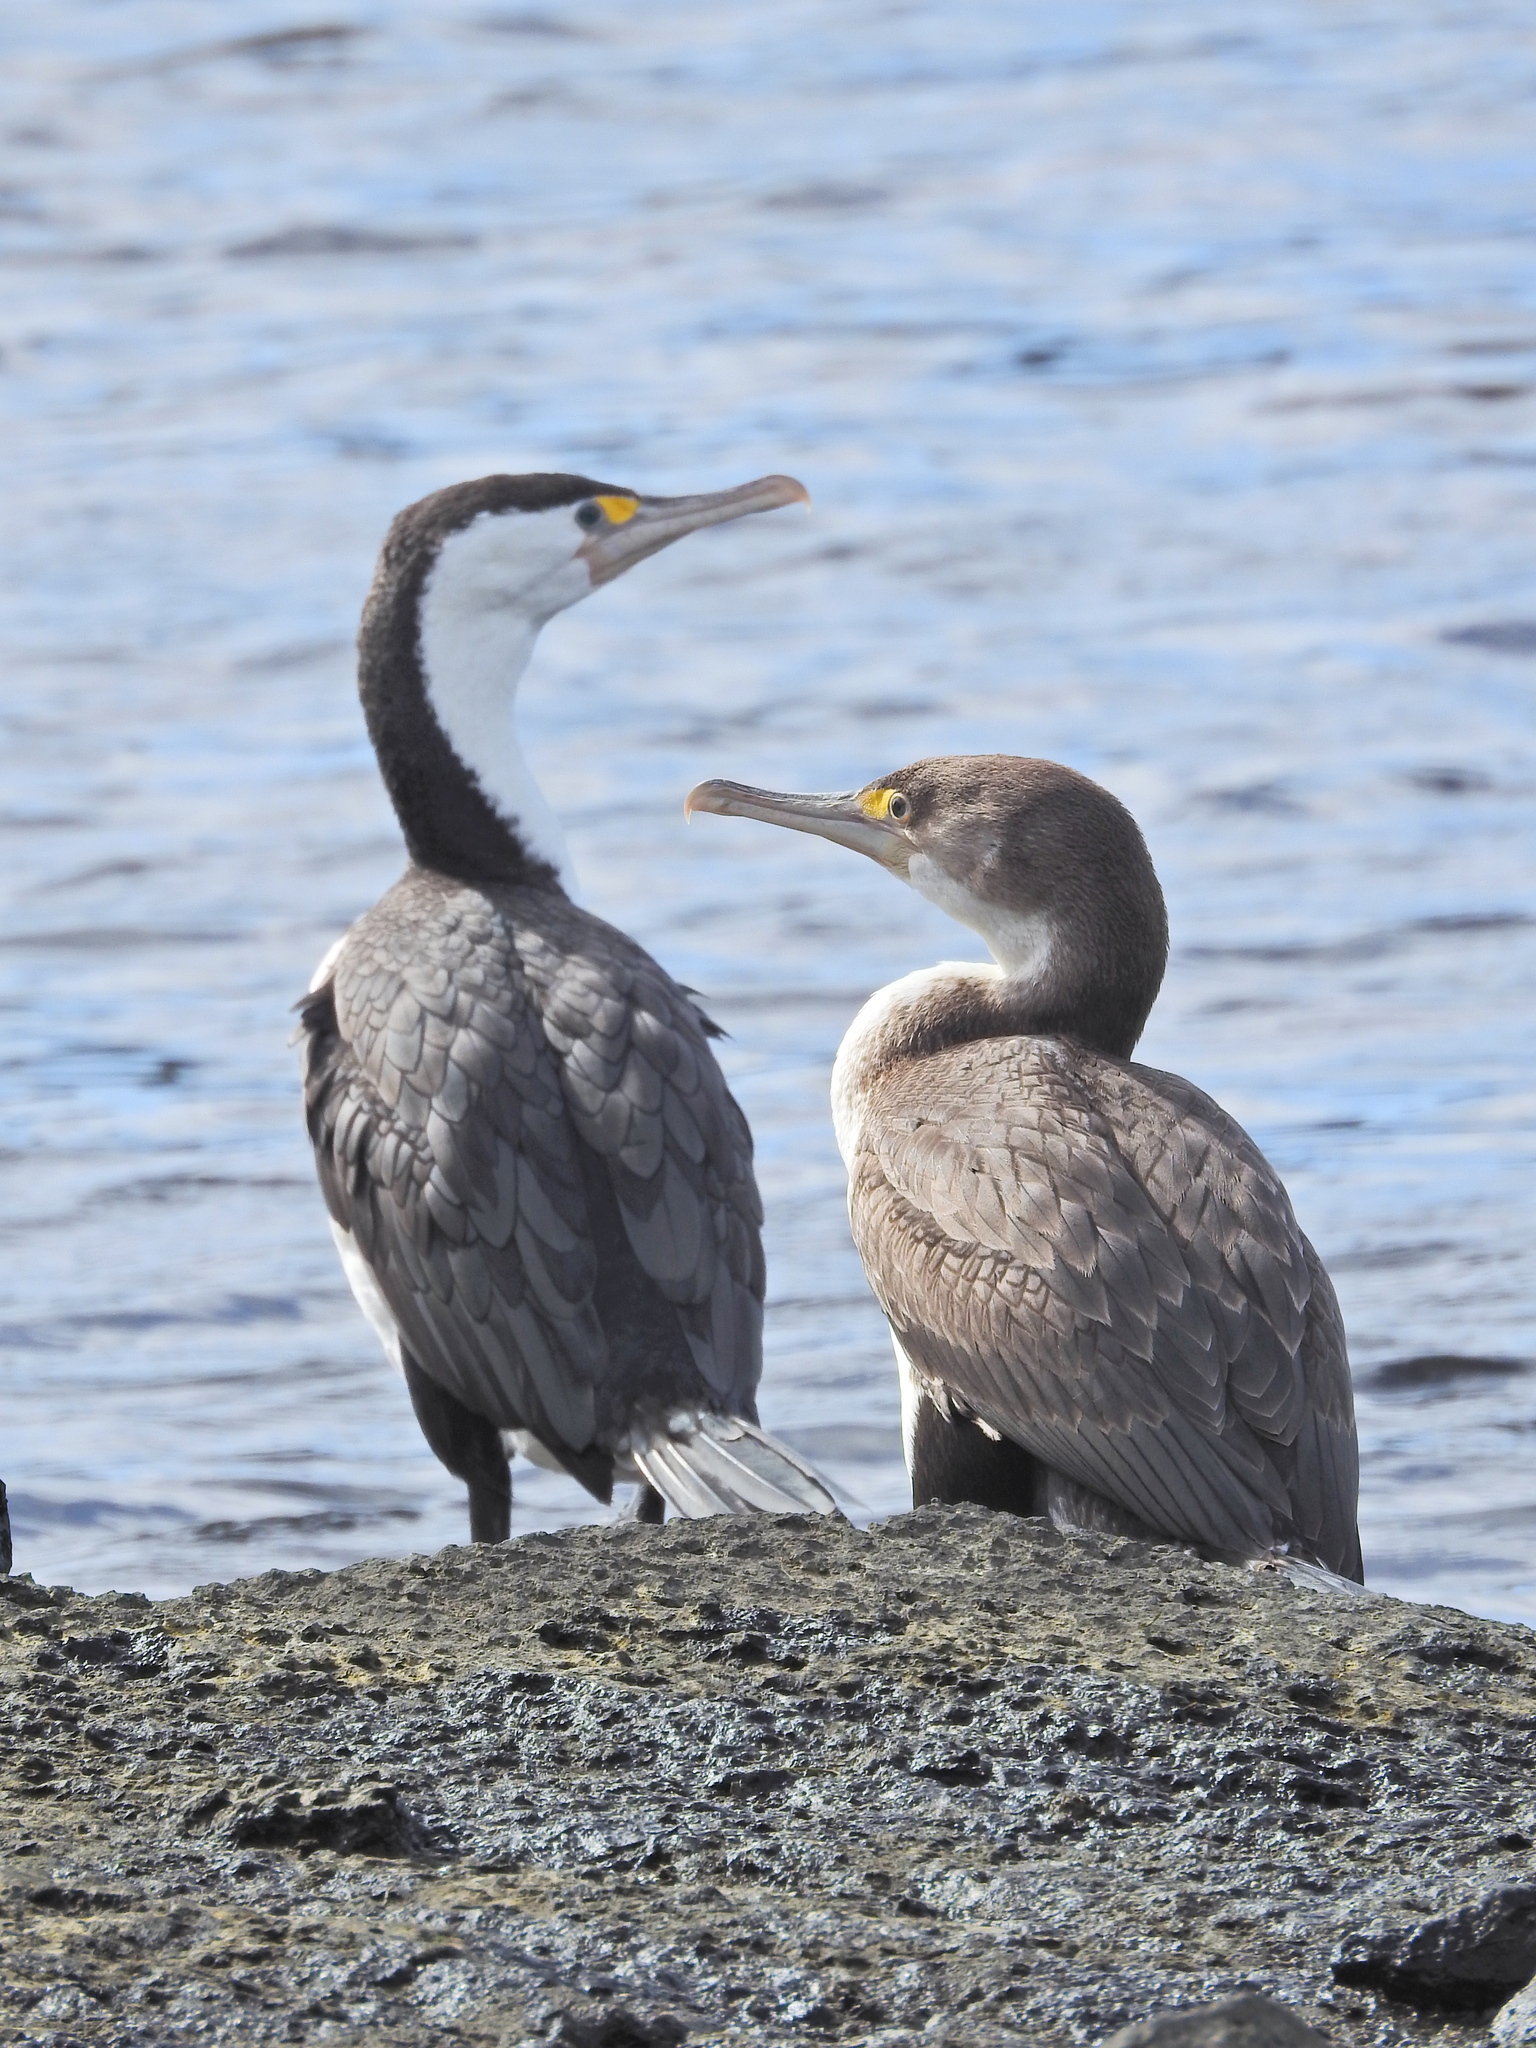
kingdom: Animalia
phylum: Chordata
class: Aves
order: Suliformes
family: Phalacrocoracidae
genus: Phalacrocorax
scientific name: Phalacrocorax varius
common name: Pied cormorant
